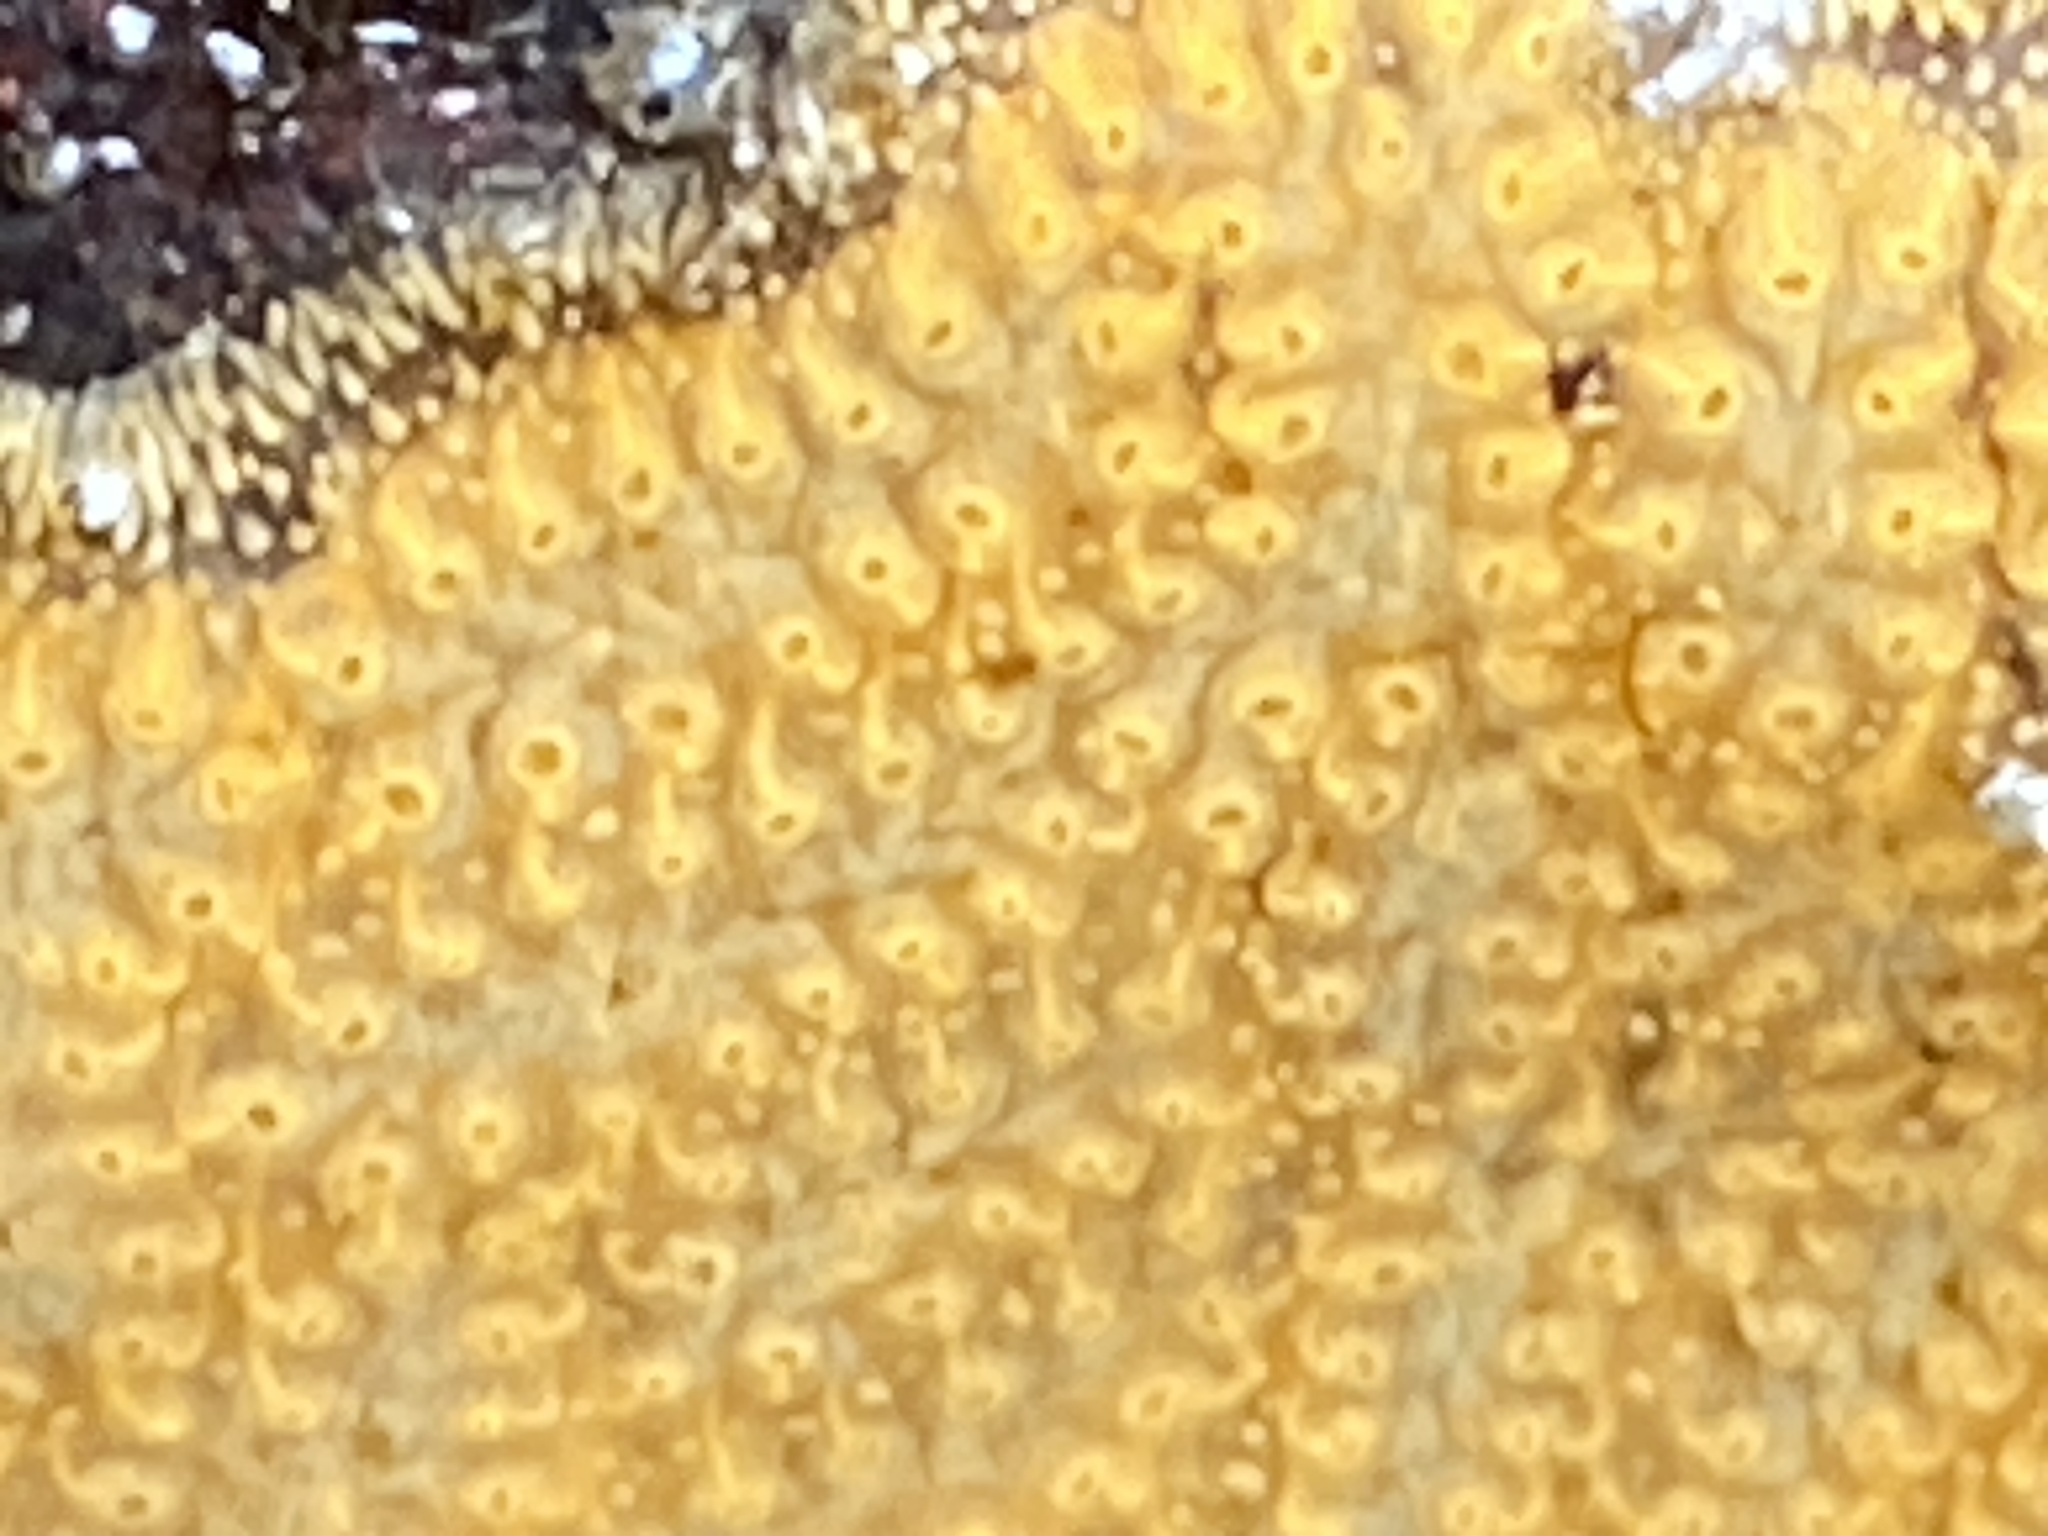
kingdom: Animalia
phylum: Chordata
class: Ascidiacea
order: Stolidobranchia
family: Styelidae
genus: Botrylloides
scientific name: Botrylloides violaceus
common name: Colonial sea squirt
